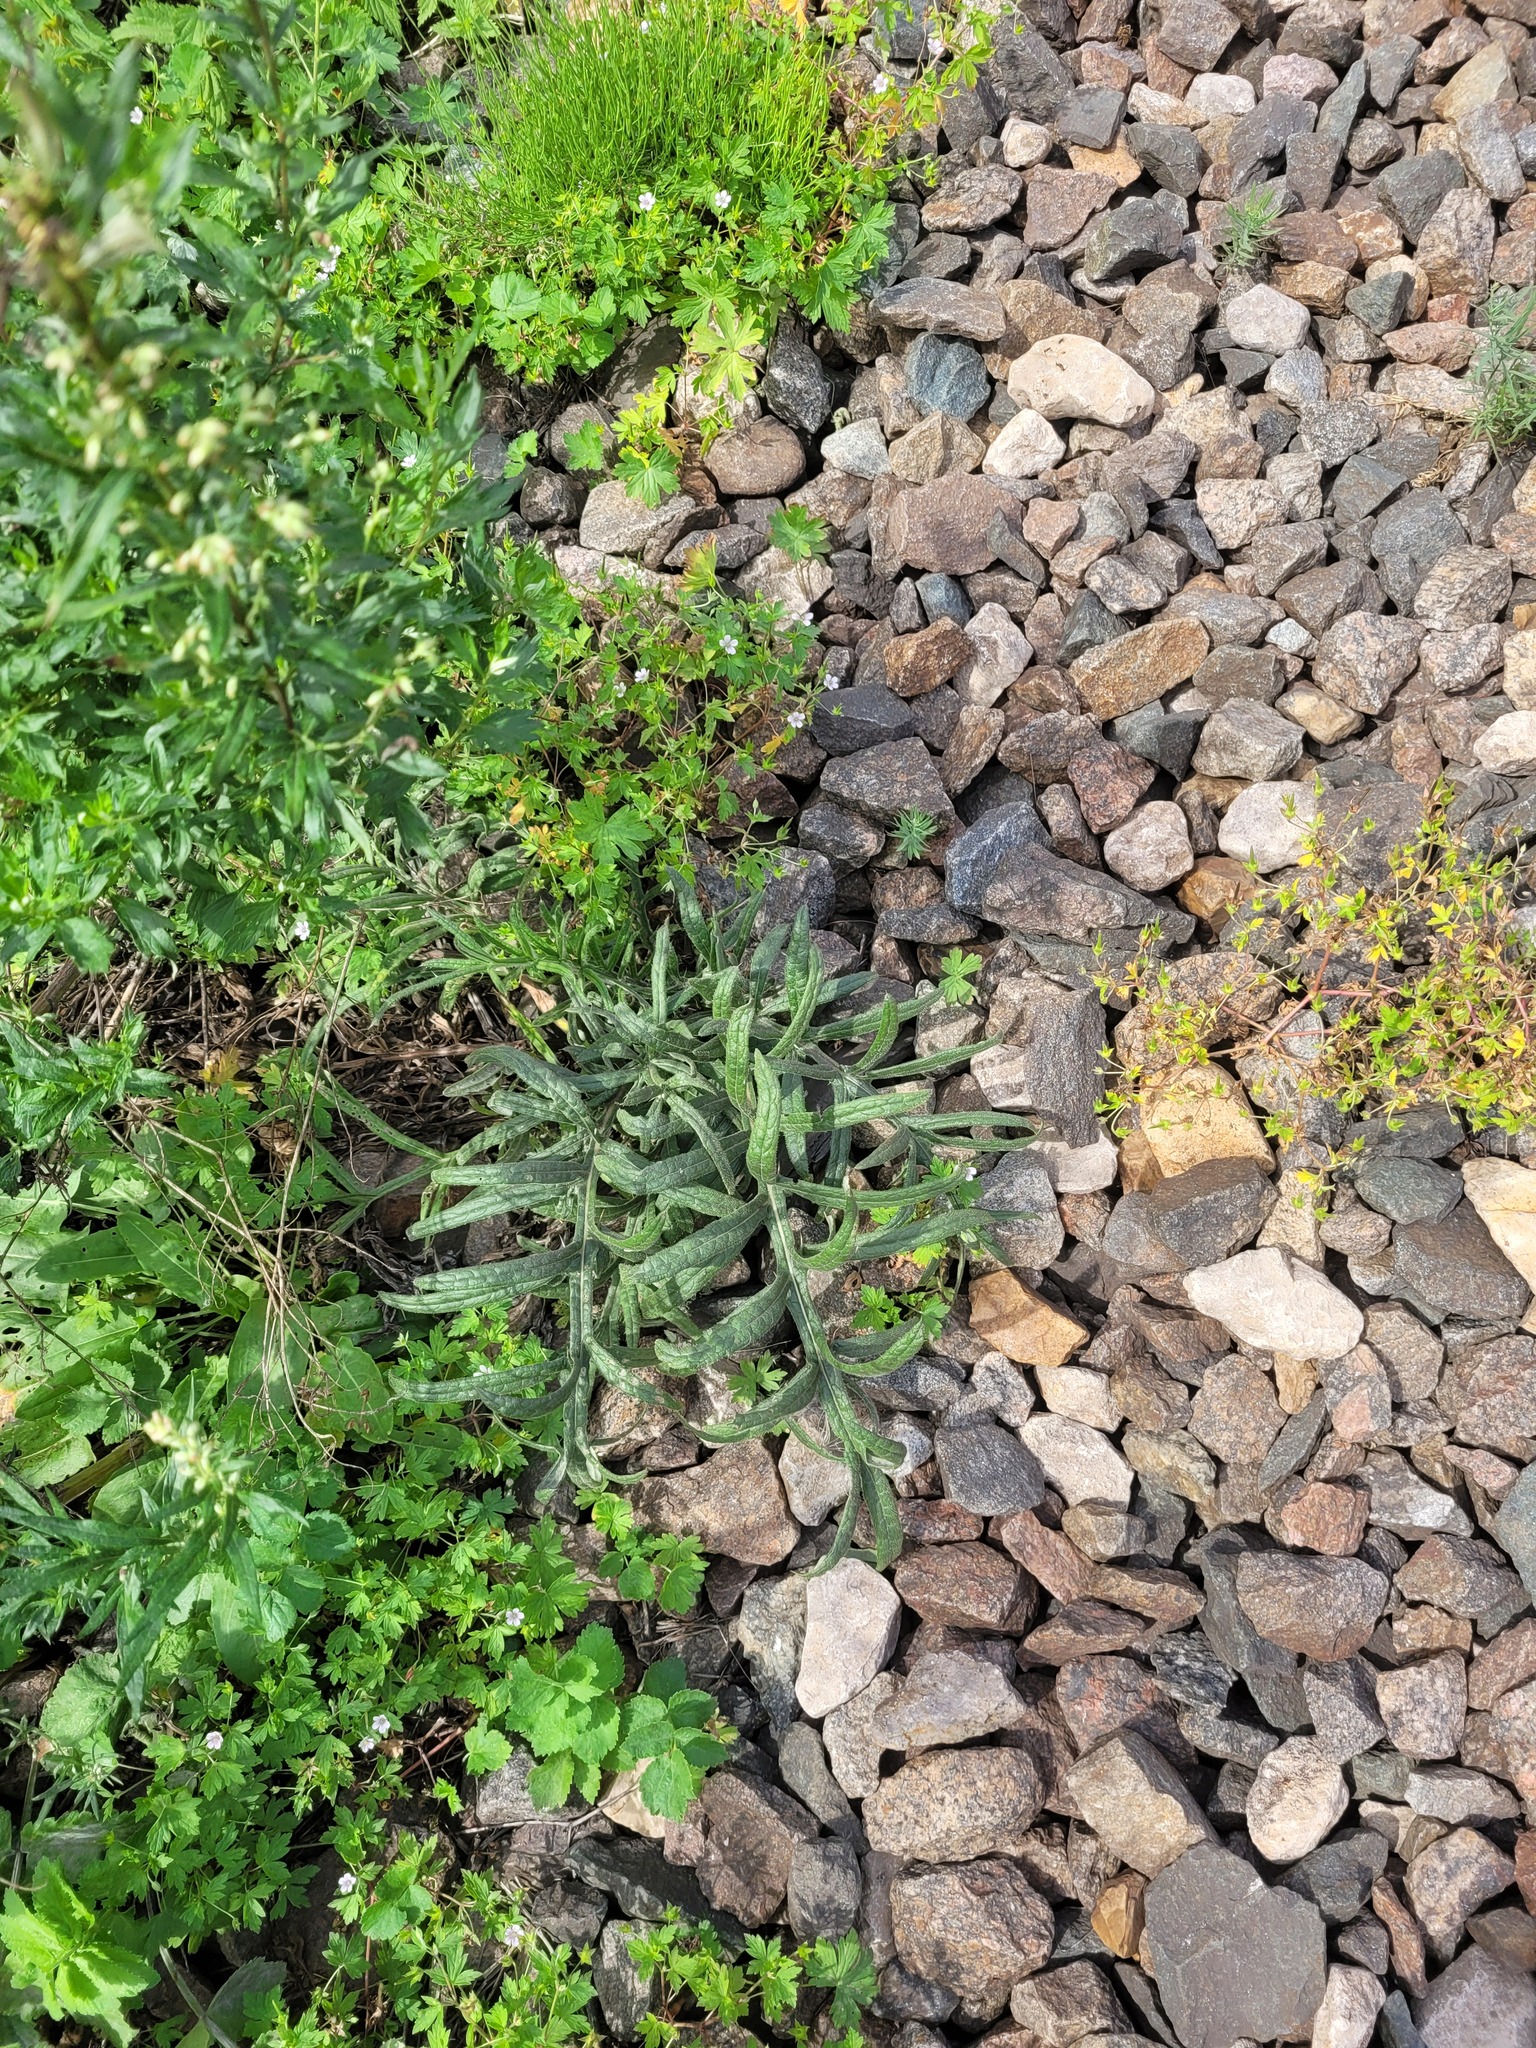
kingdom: Plantae
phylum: Tracheophyta
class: Magnoliopsida
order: Asterales
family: Asteraceae
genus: Lophiolepis
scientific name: Lophiolepis decussata
